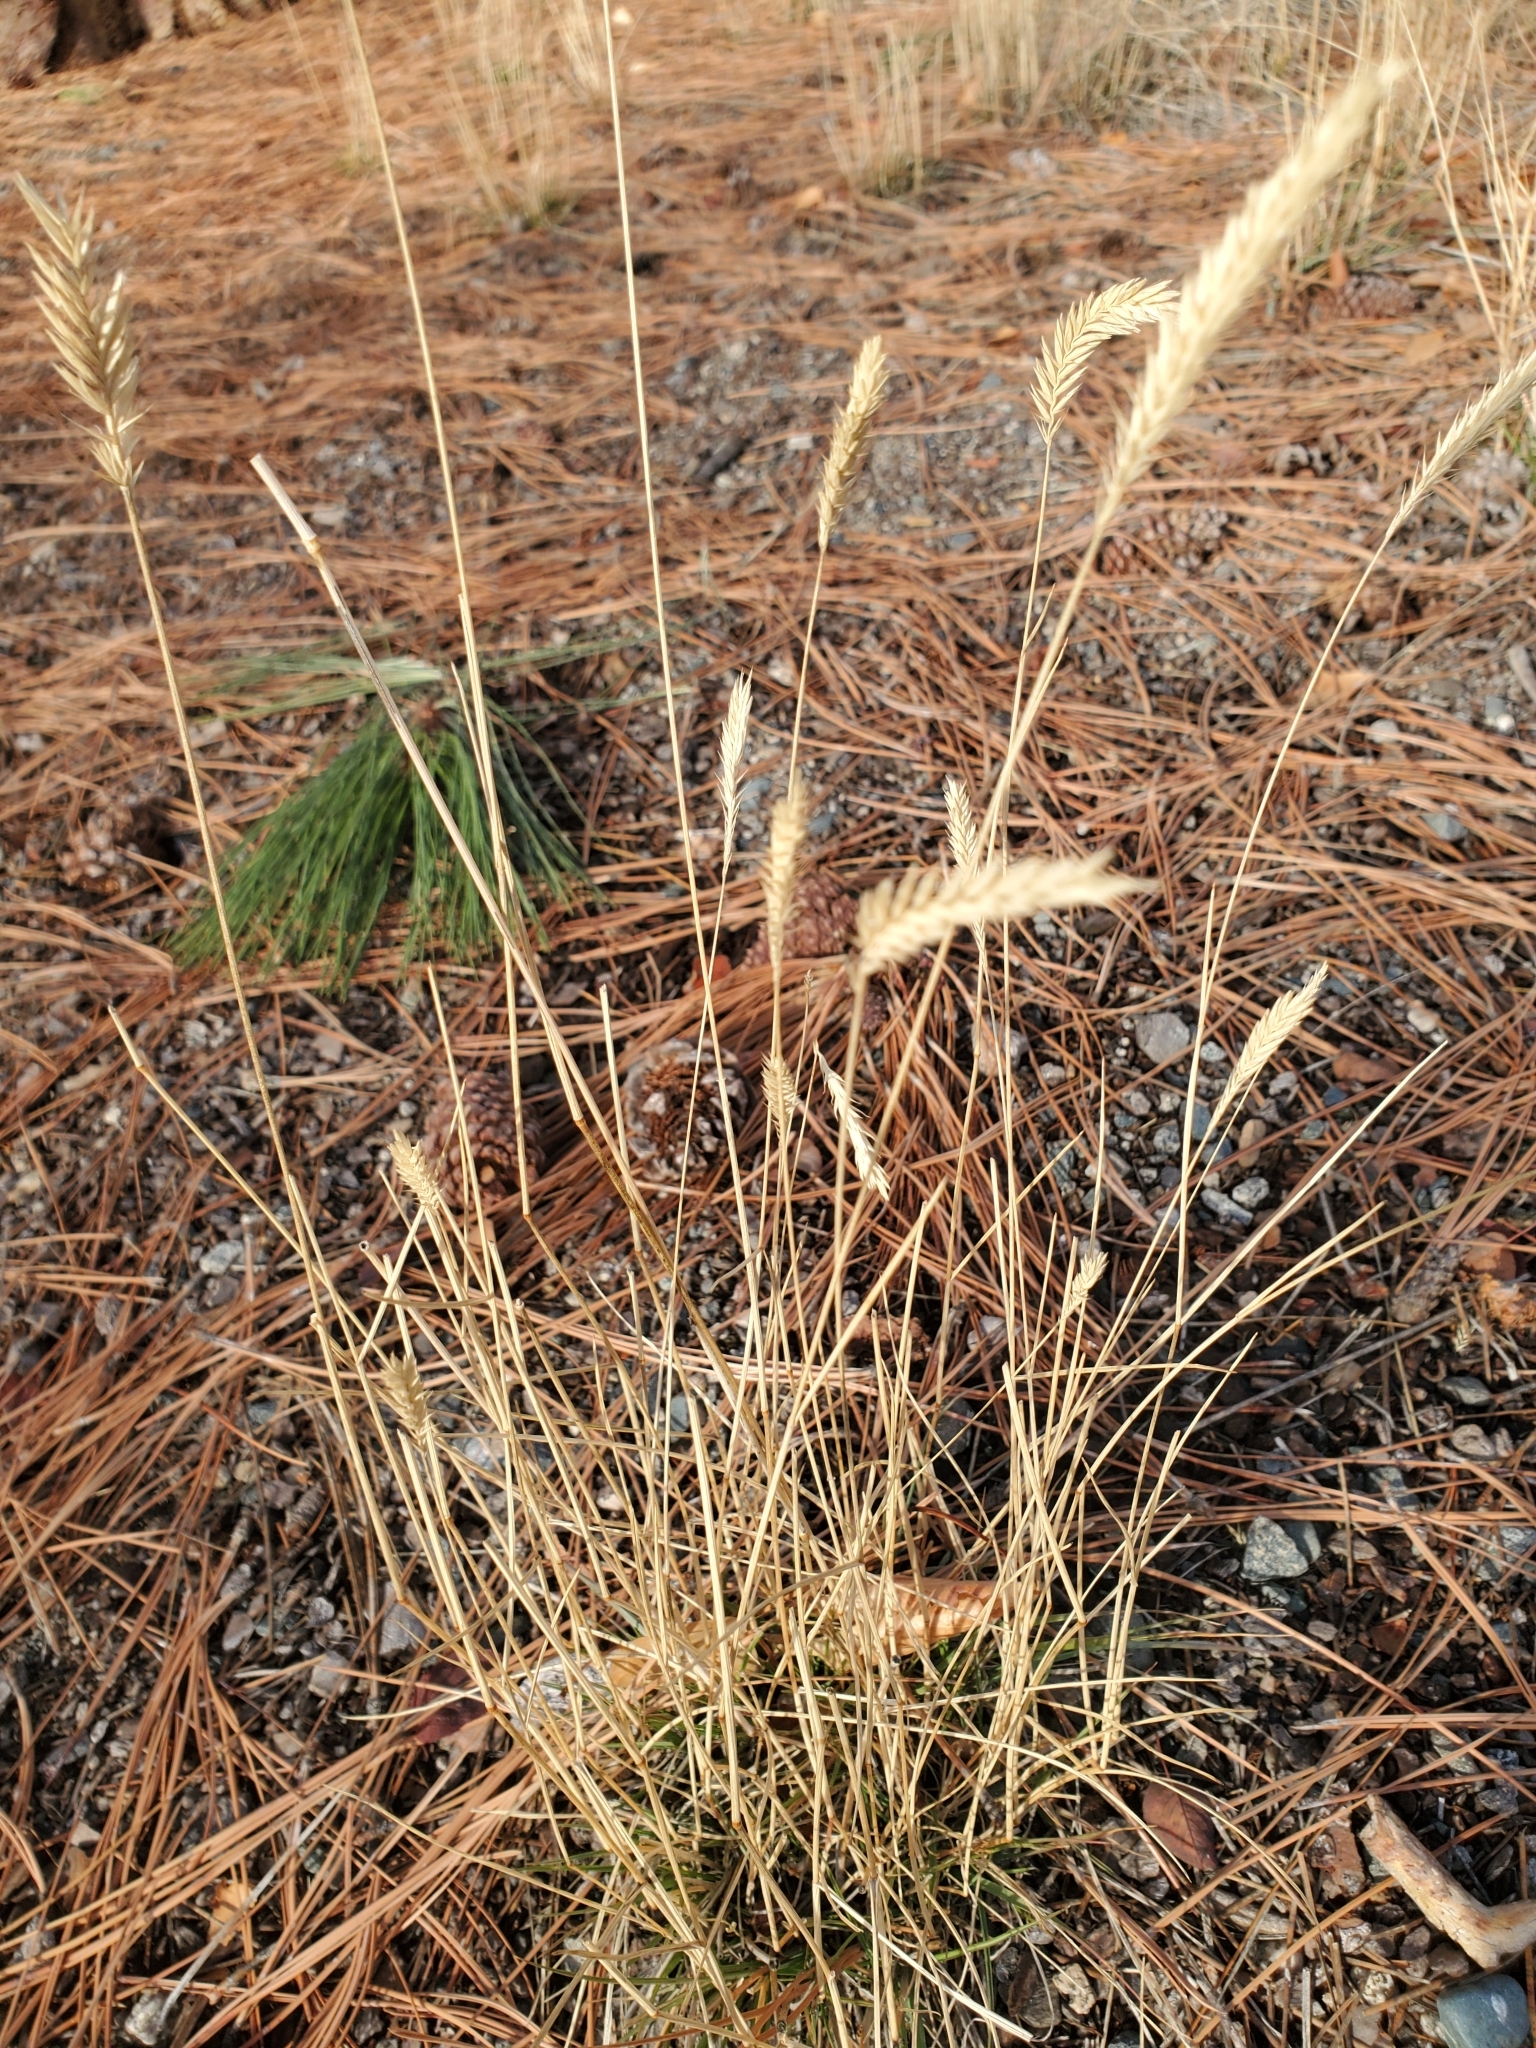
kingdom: Plantae
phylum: Tracheophyta
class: Liliopsida
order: Poales
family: Poaceae
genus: Agropyron
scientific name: Agropyron cristatum
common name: Crested wheatgrass
